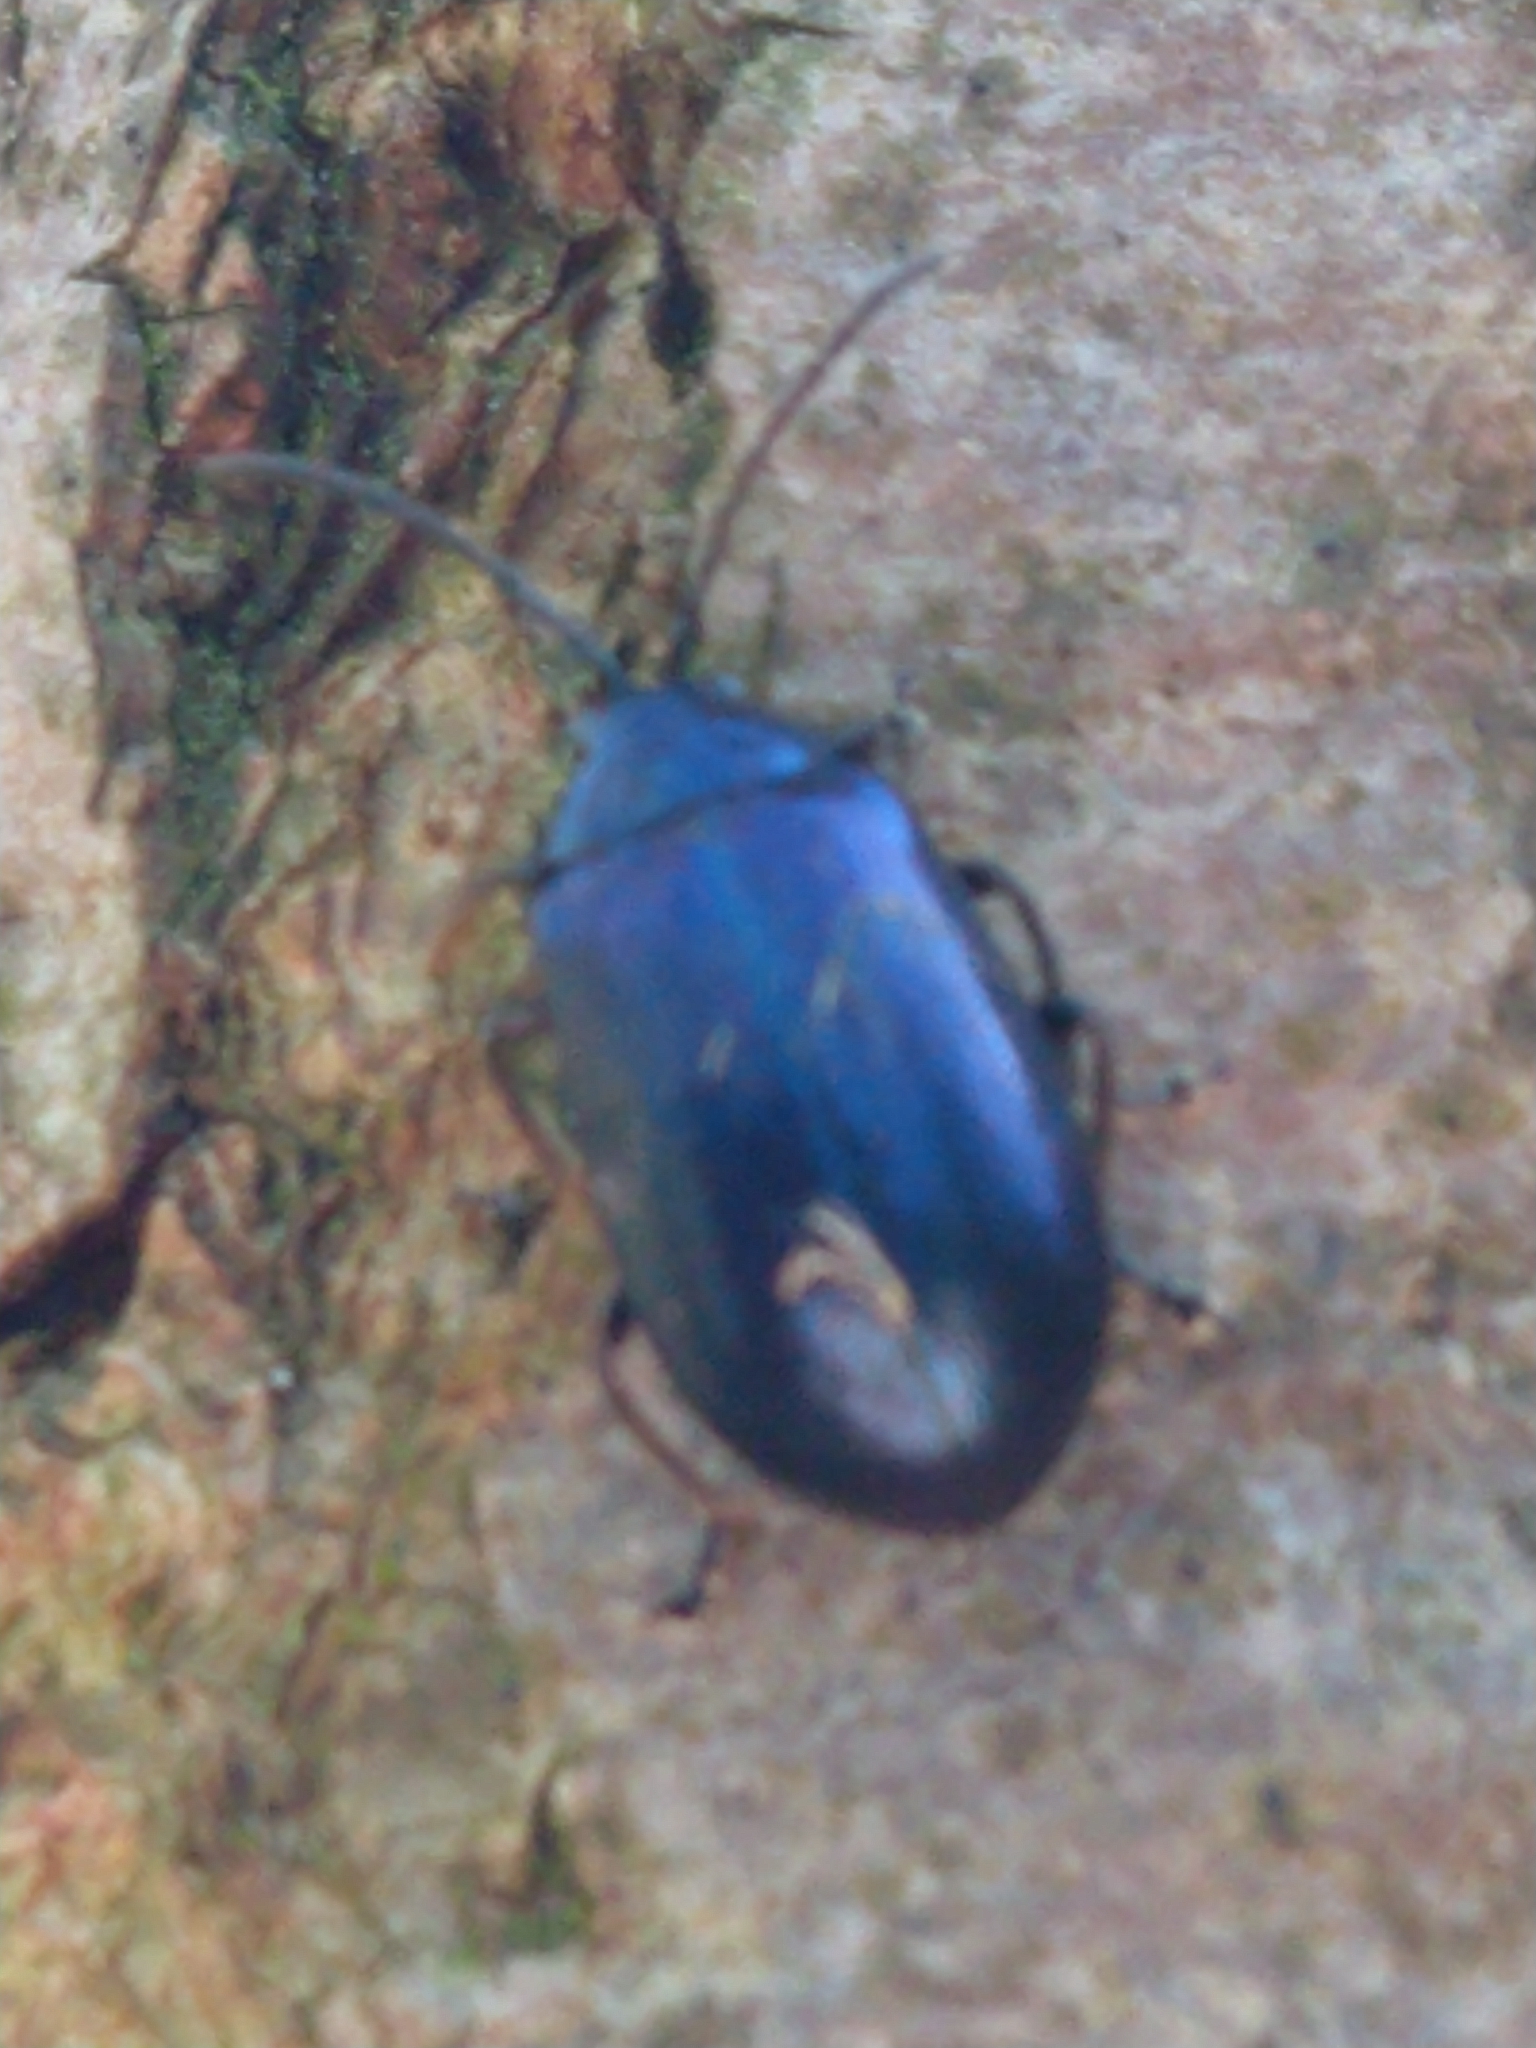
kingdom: Animalia
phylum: Arthropoda
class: Insecta
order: Coleoptera
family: Chrysomelidae
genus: Agelastica
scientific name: Agelastica alni
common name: Alder leaf beetle
